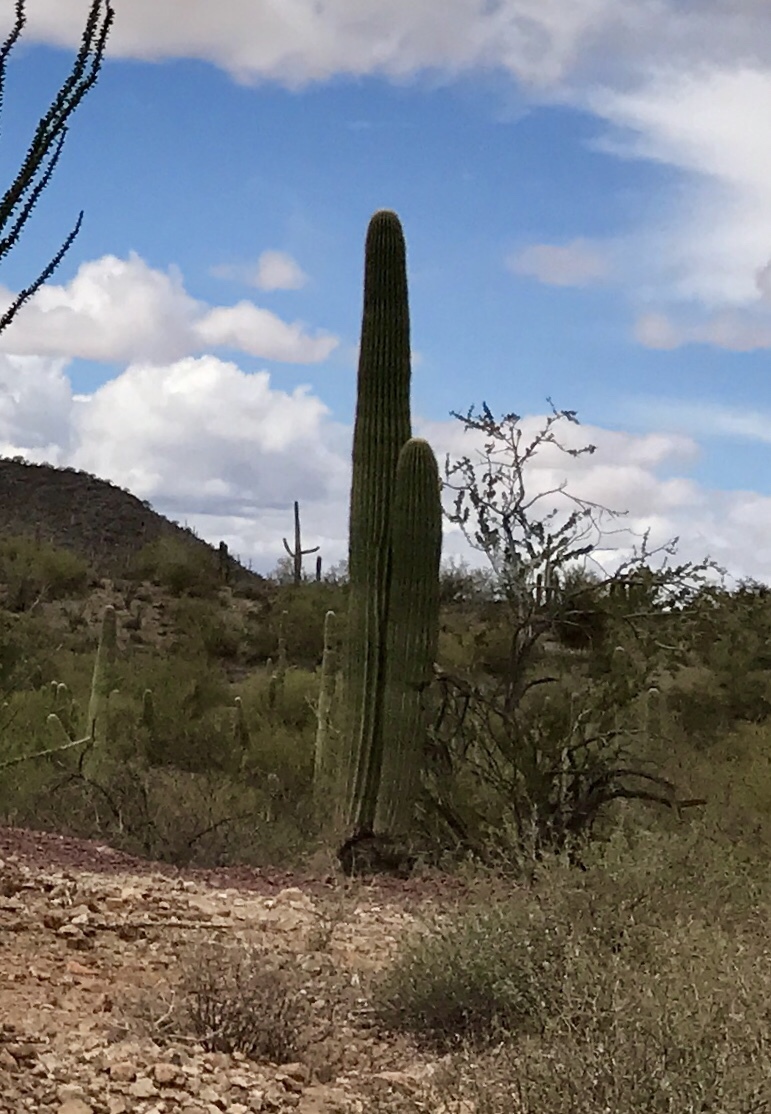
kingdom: Plantae
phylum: Tracheophyta
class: Magnoliopsida
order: Caryophyllales
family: Cactaceae
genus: Carnegiea
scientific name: Carnegiea gigantea
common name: Saguaro
